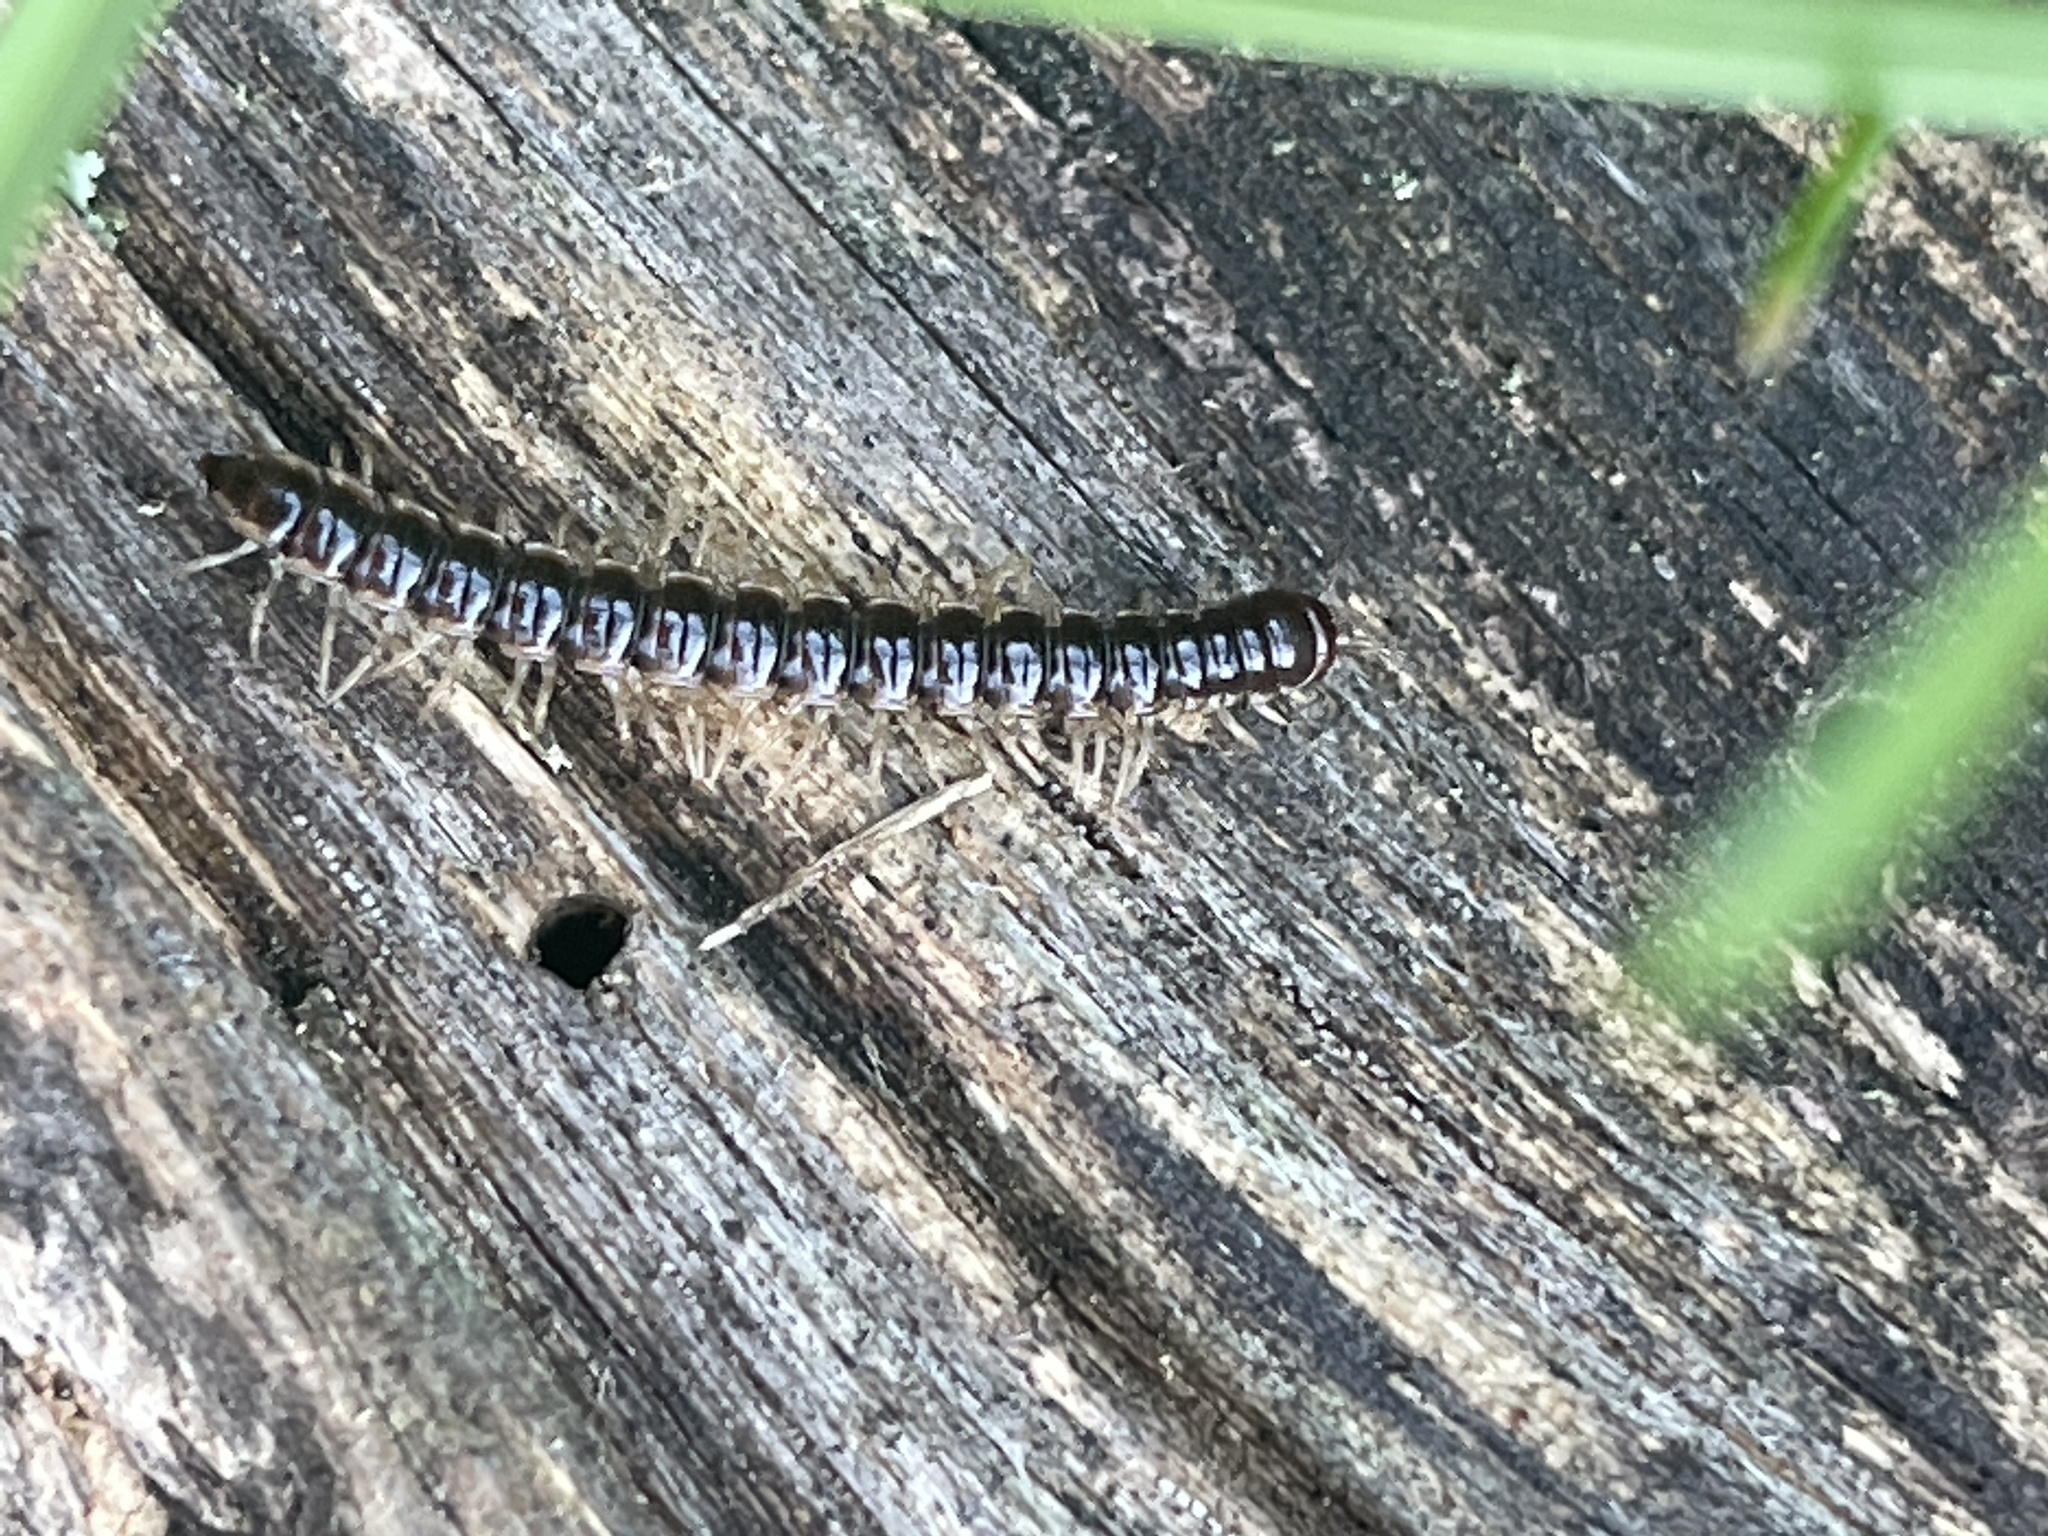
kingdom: Animalia
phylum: Arthropoda
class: Diplopoda
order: Polydesmida
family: Paradoxosomatidae
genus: Oxidus
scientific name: Oxidus gracilis
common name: Greenhouse millipede
